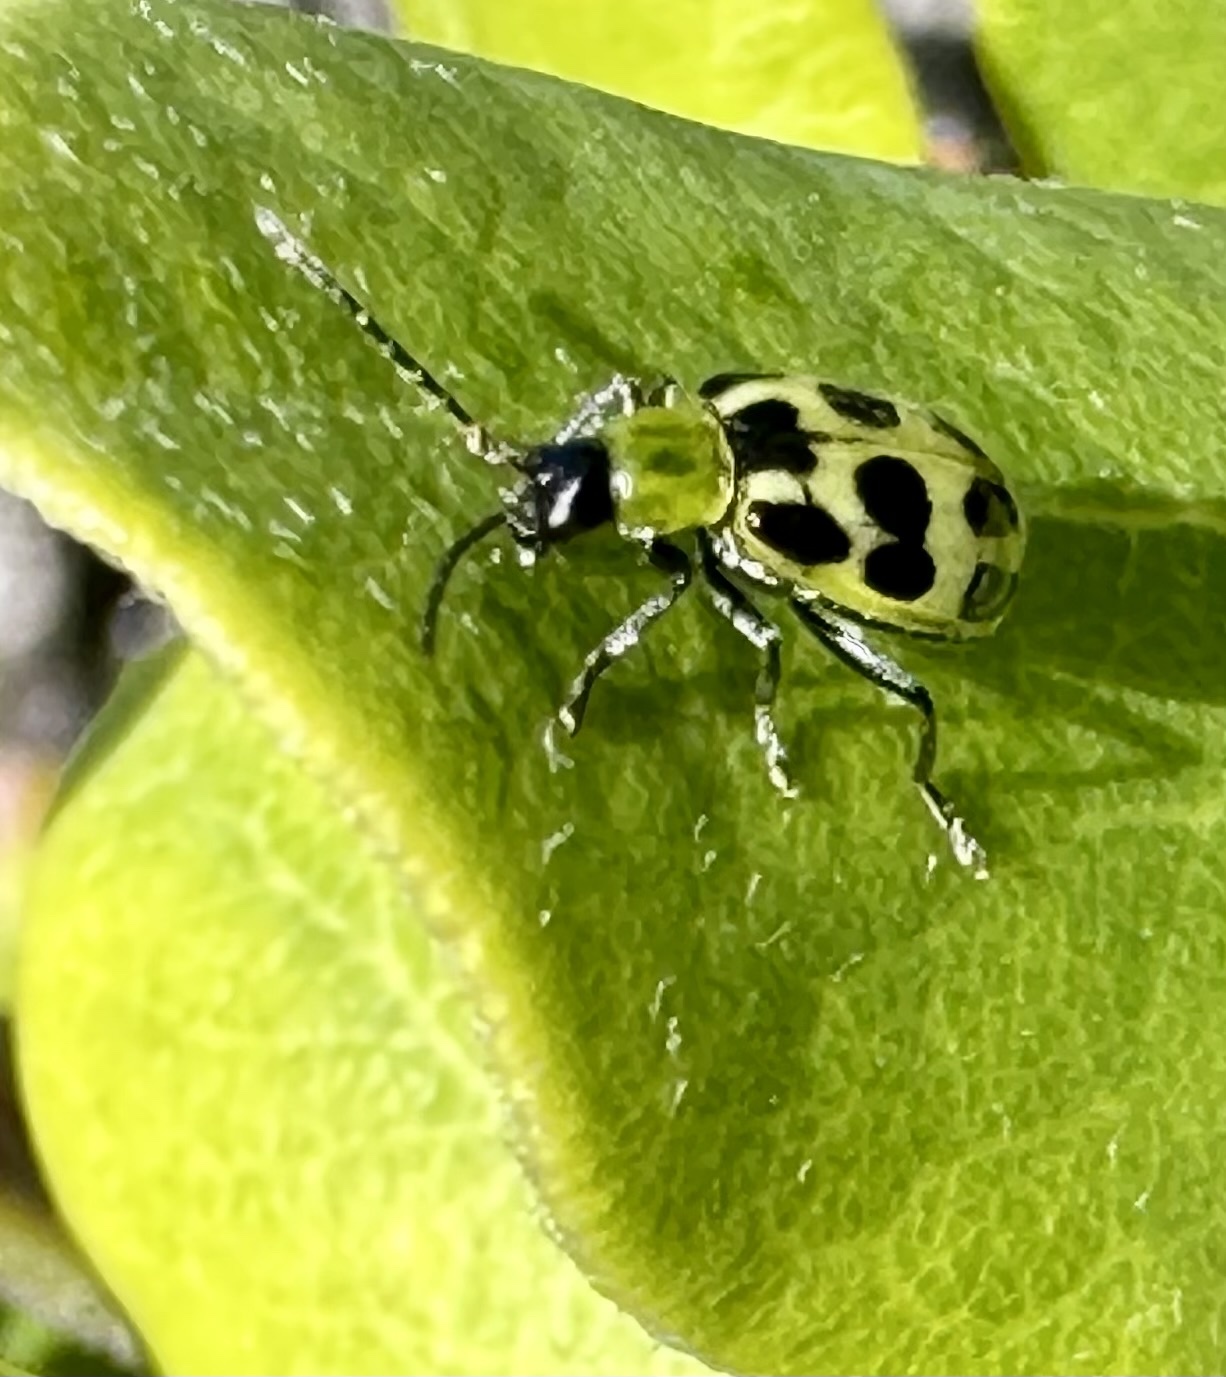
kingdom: Animalia
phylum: Arthropoda
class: Insecta
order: Coleoptera
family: Chrysomelidae
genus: Diabrotica
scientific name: Diabrotica undecimpunctata
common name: Spotted cucumber beetle
